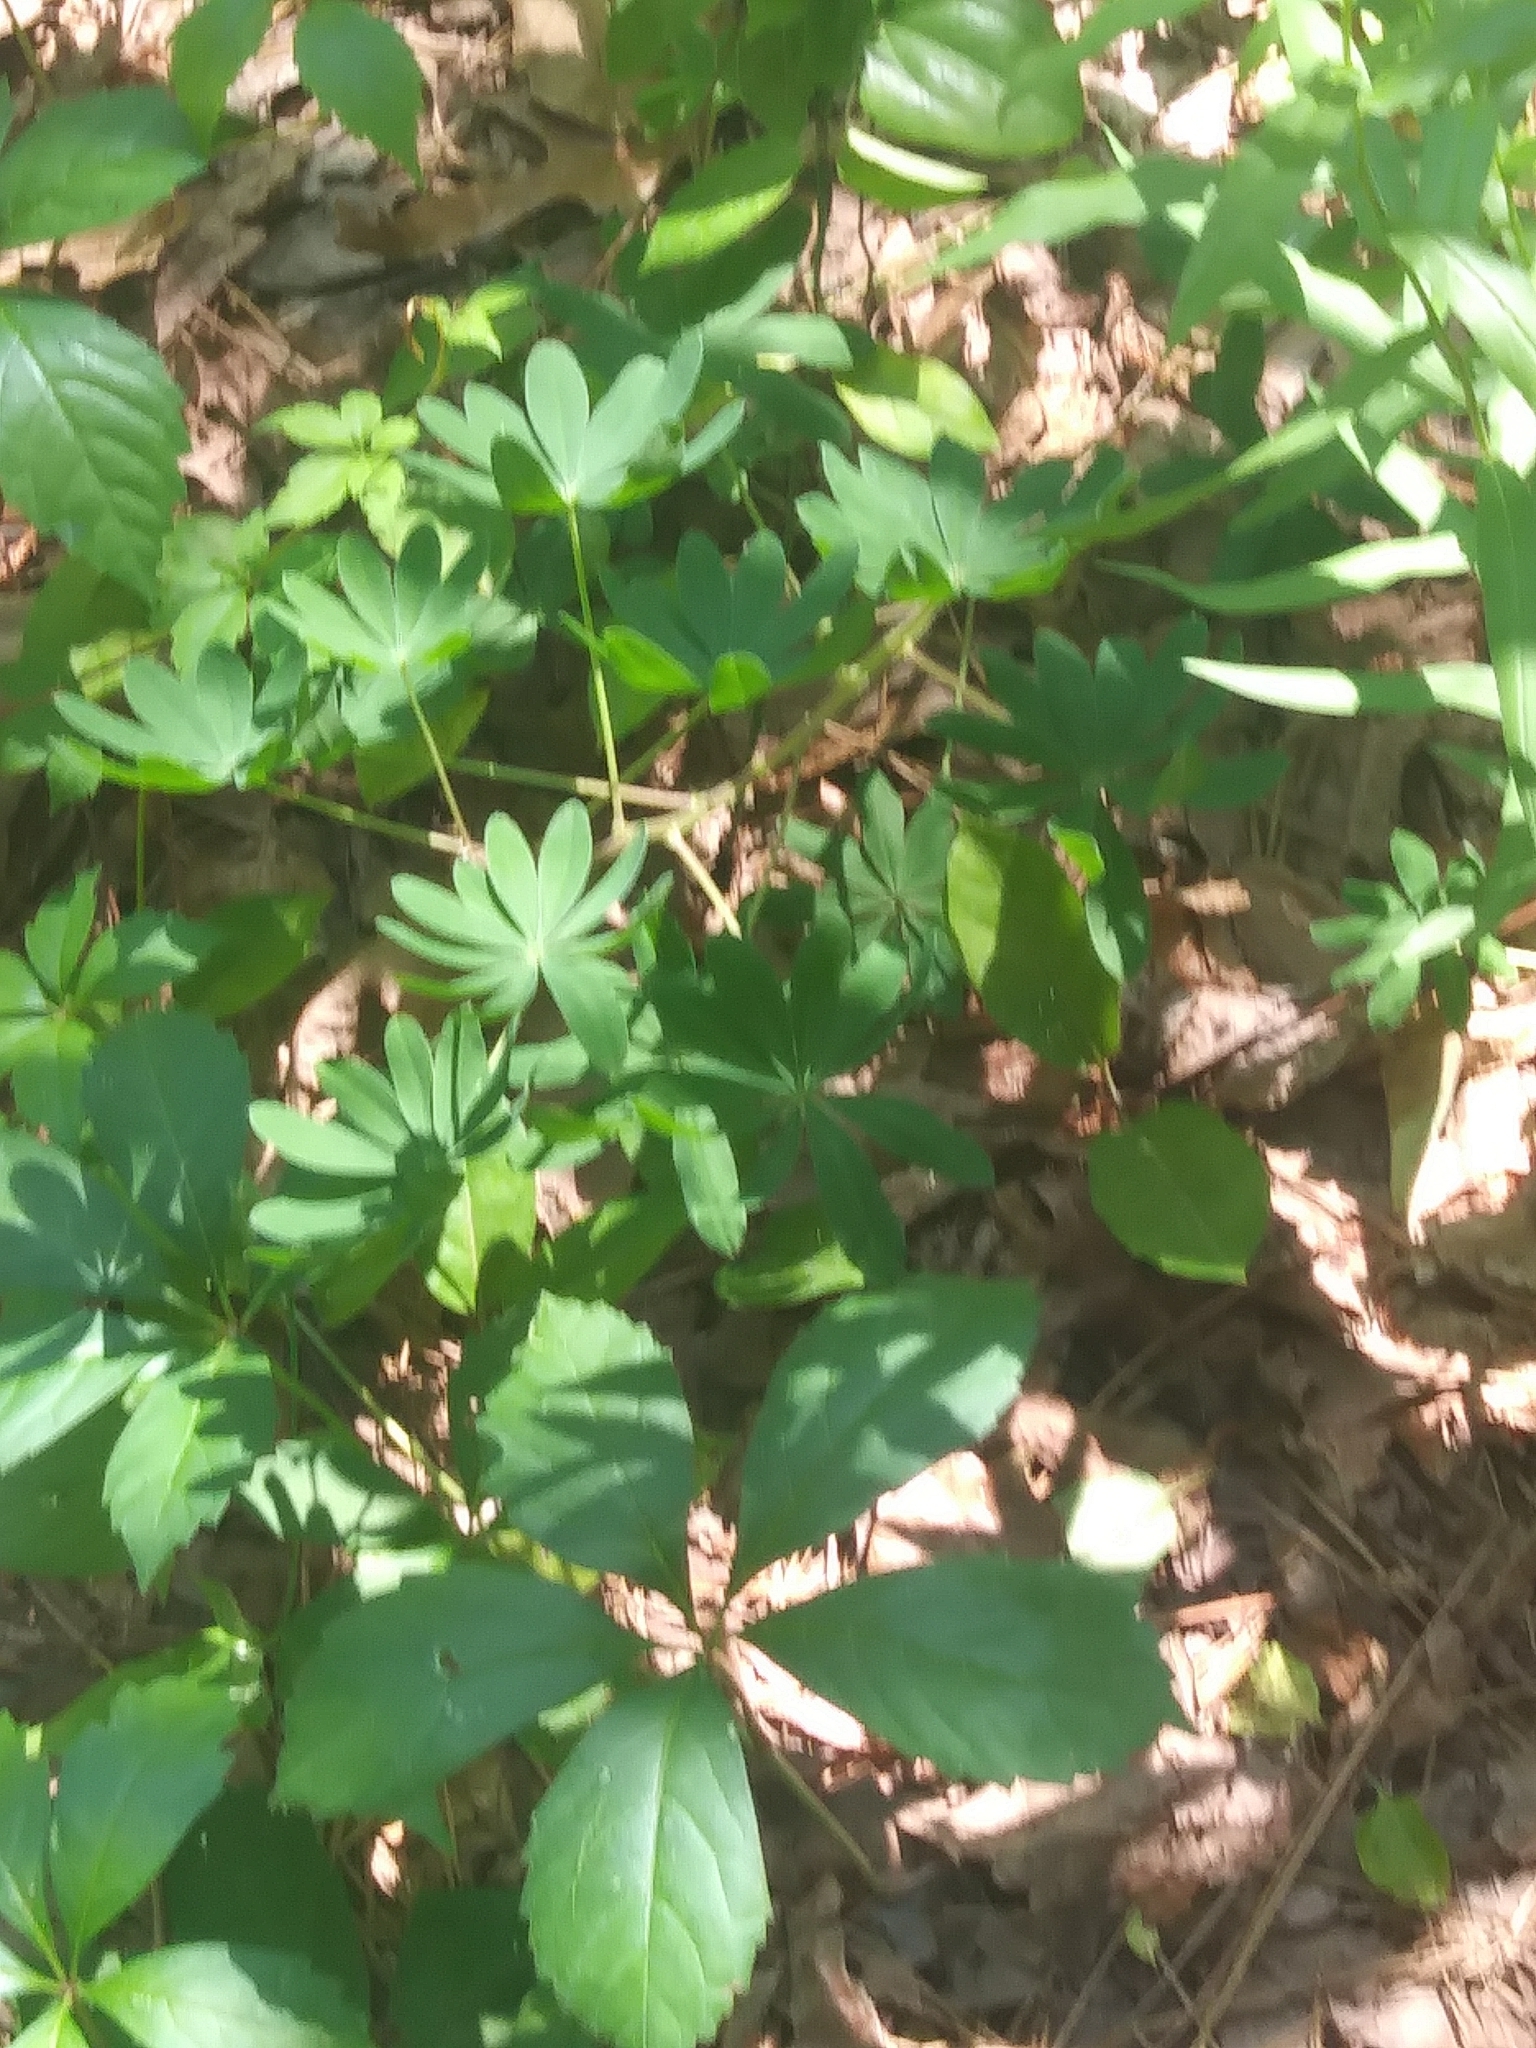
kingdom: Plantae
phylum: Tracheophyta
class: Magnoliopsida
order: Fabales
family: Fabaceae
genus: Lupinus
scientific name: Lupinus perennis
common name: Sundial lupine
